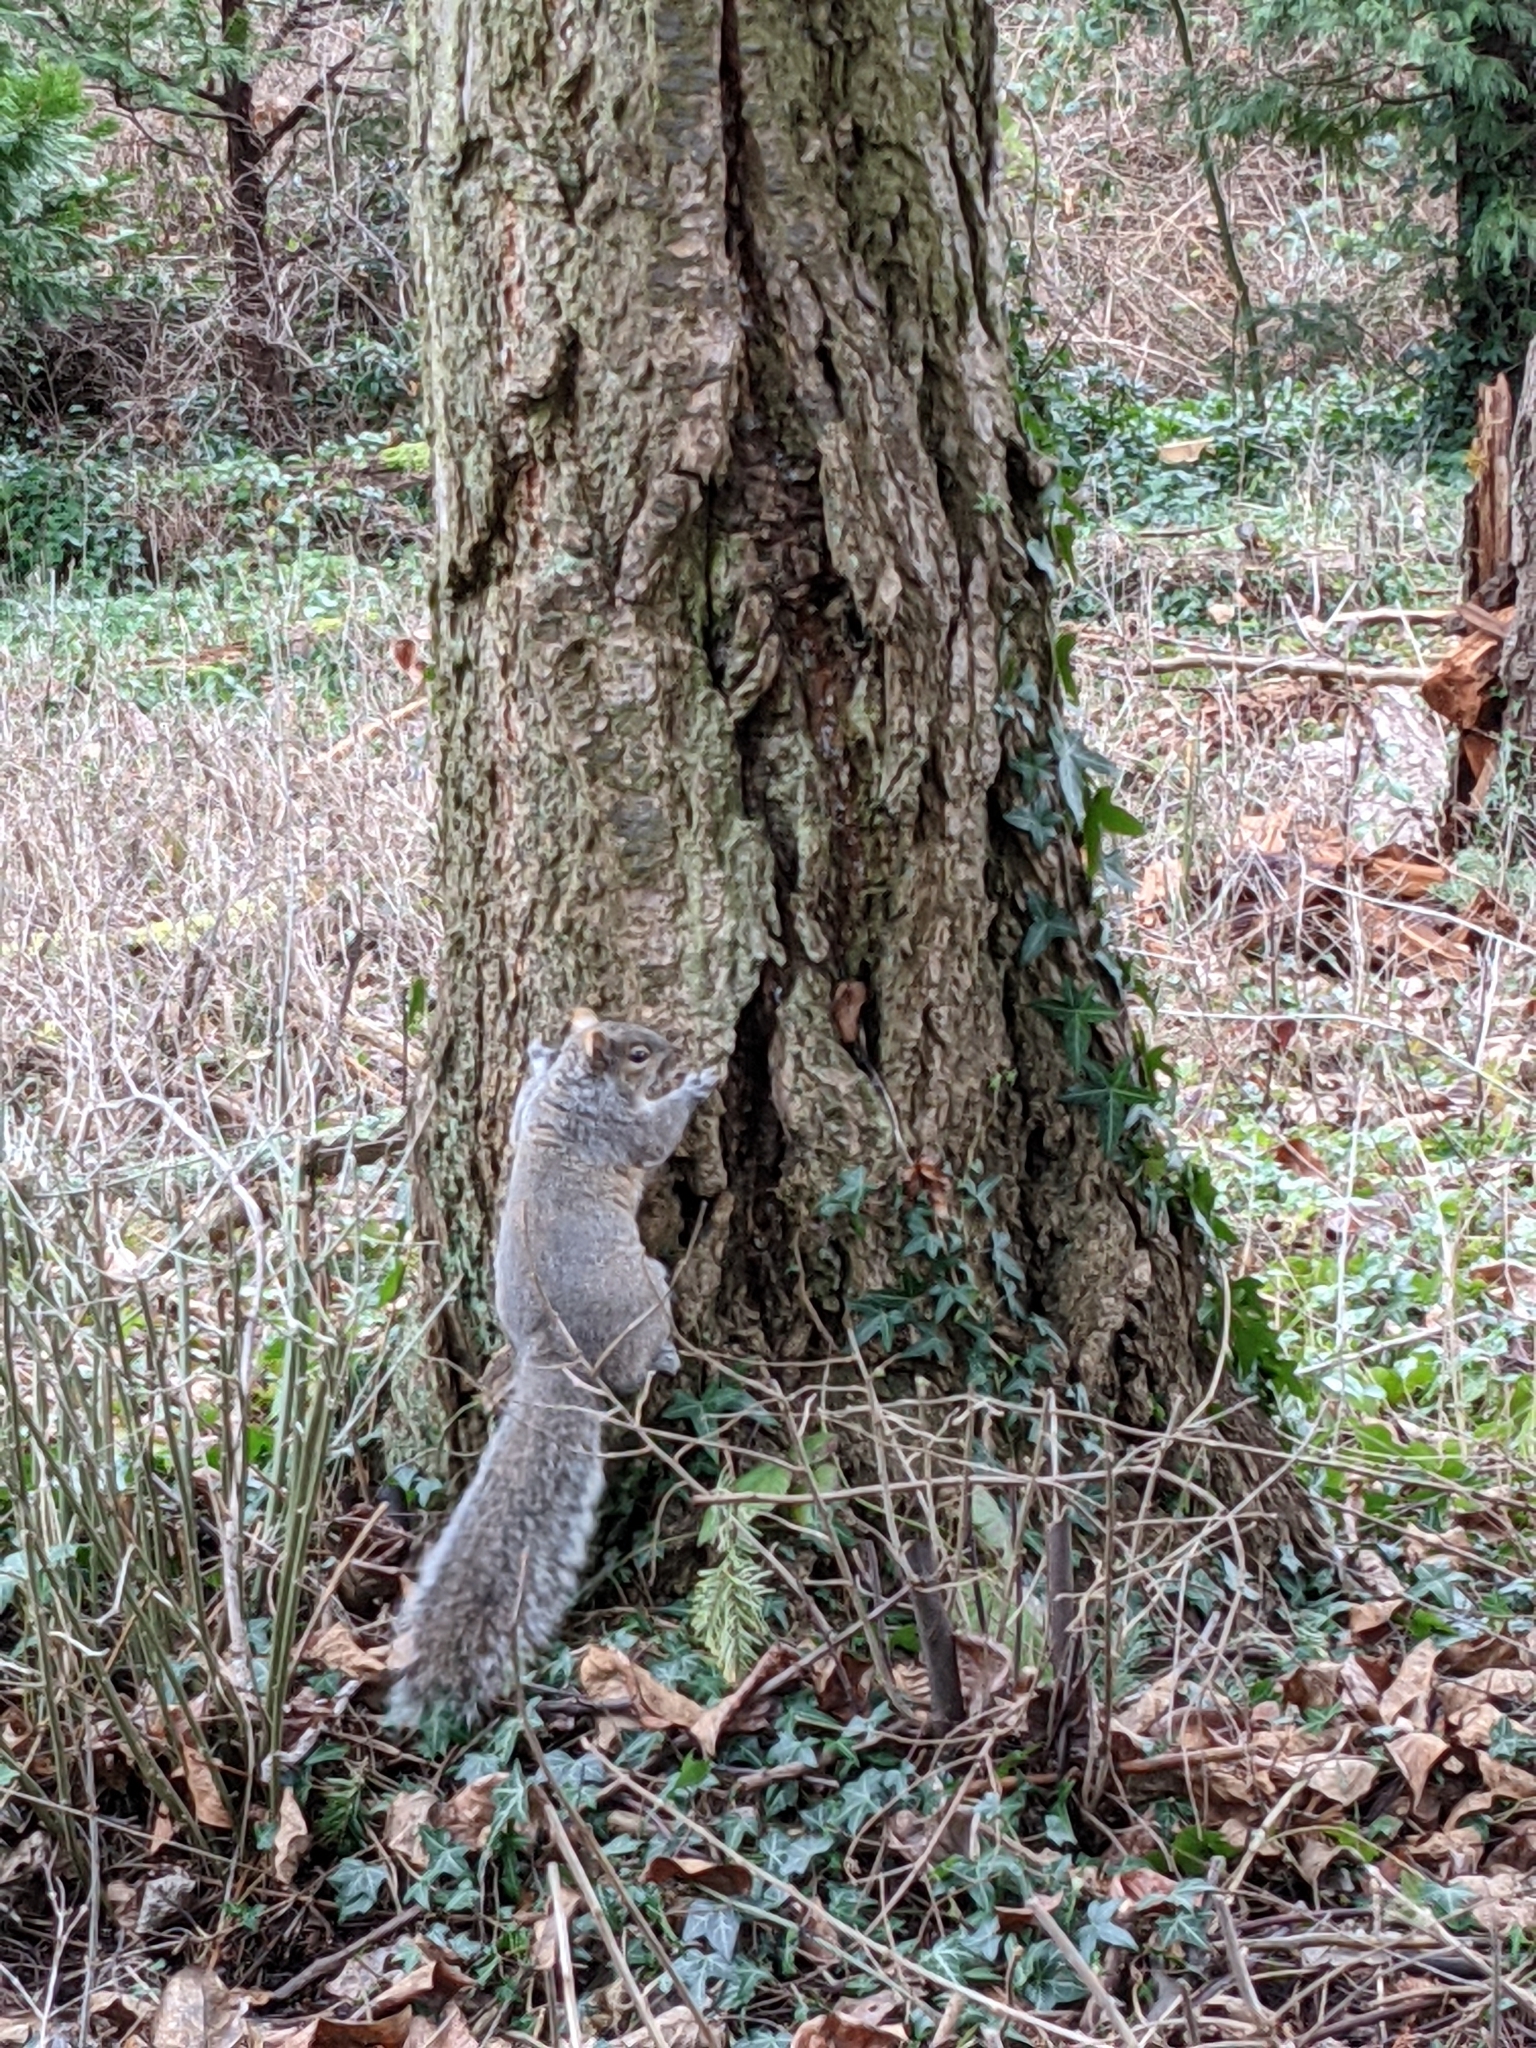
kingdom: Animalia
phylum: Chordata
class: Mammalia
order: Rodentia
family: Sciuridae
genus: Sciurus
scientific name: Sciurus carolinensis
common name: Eastern gray squirrel
